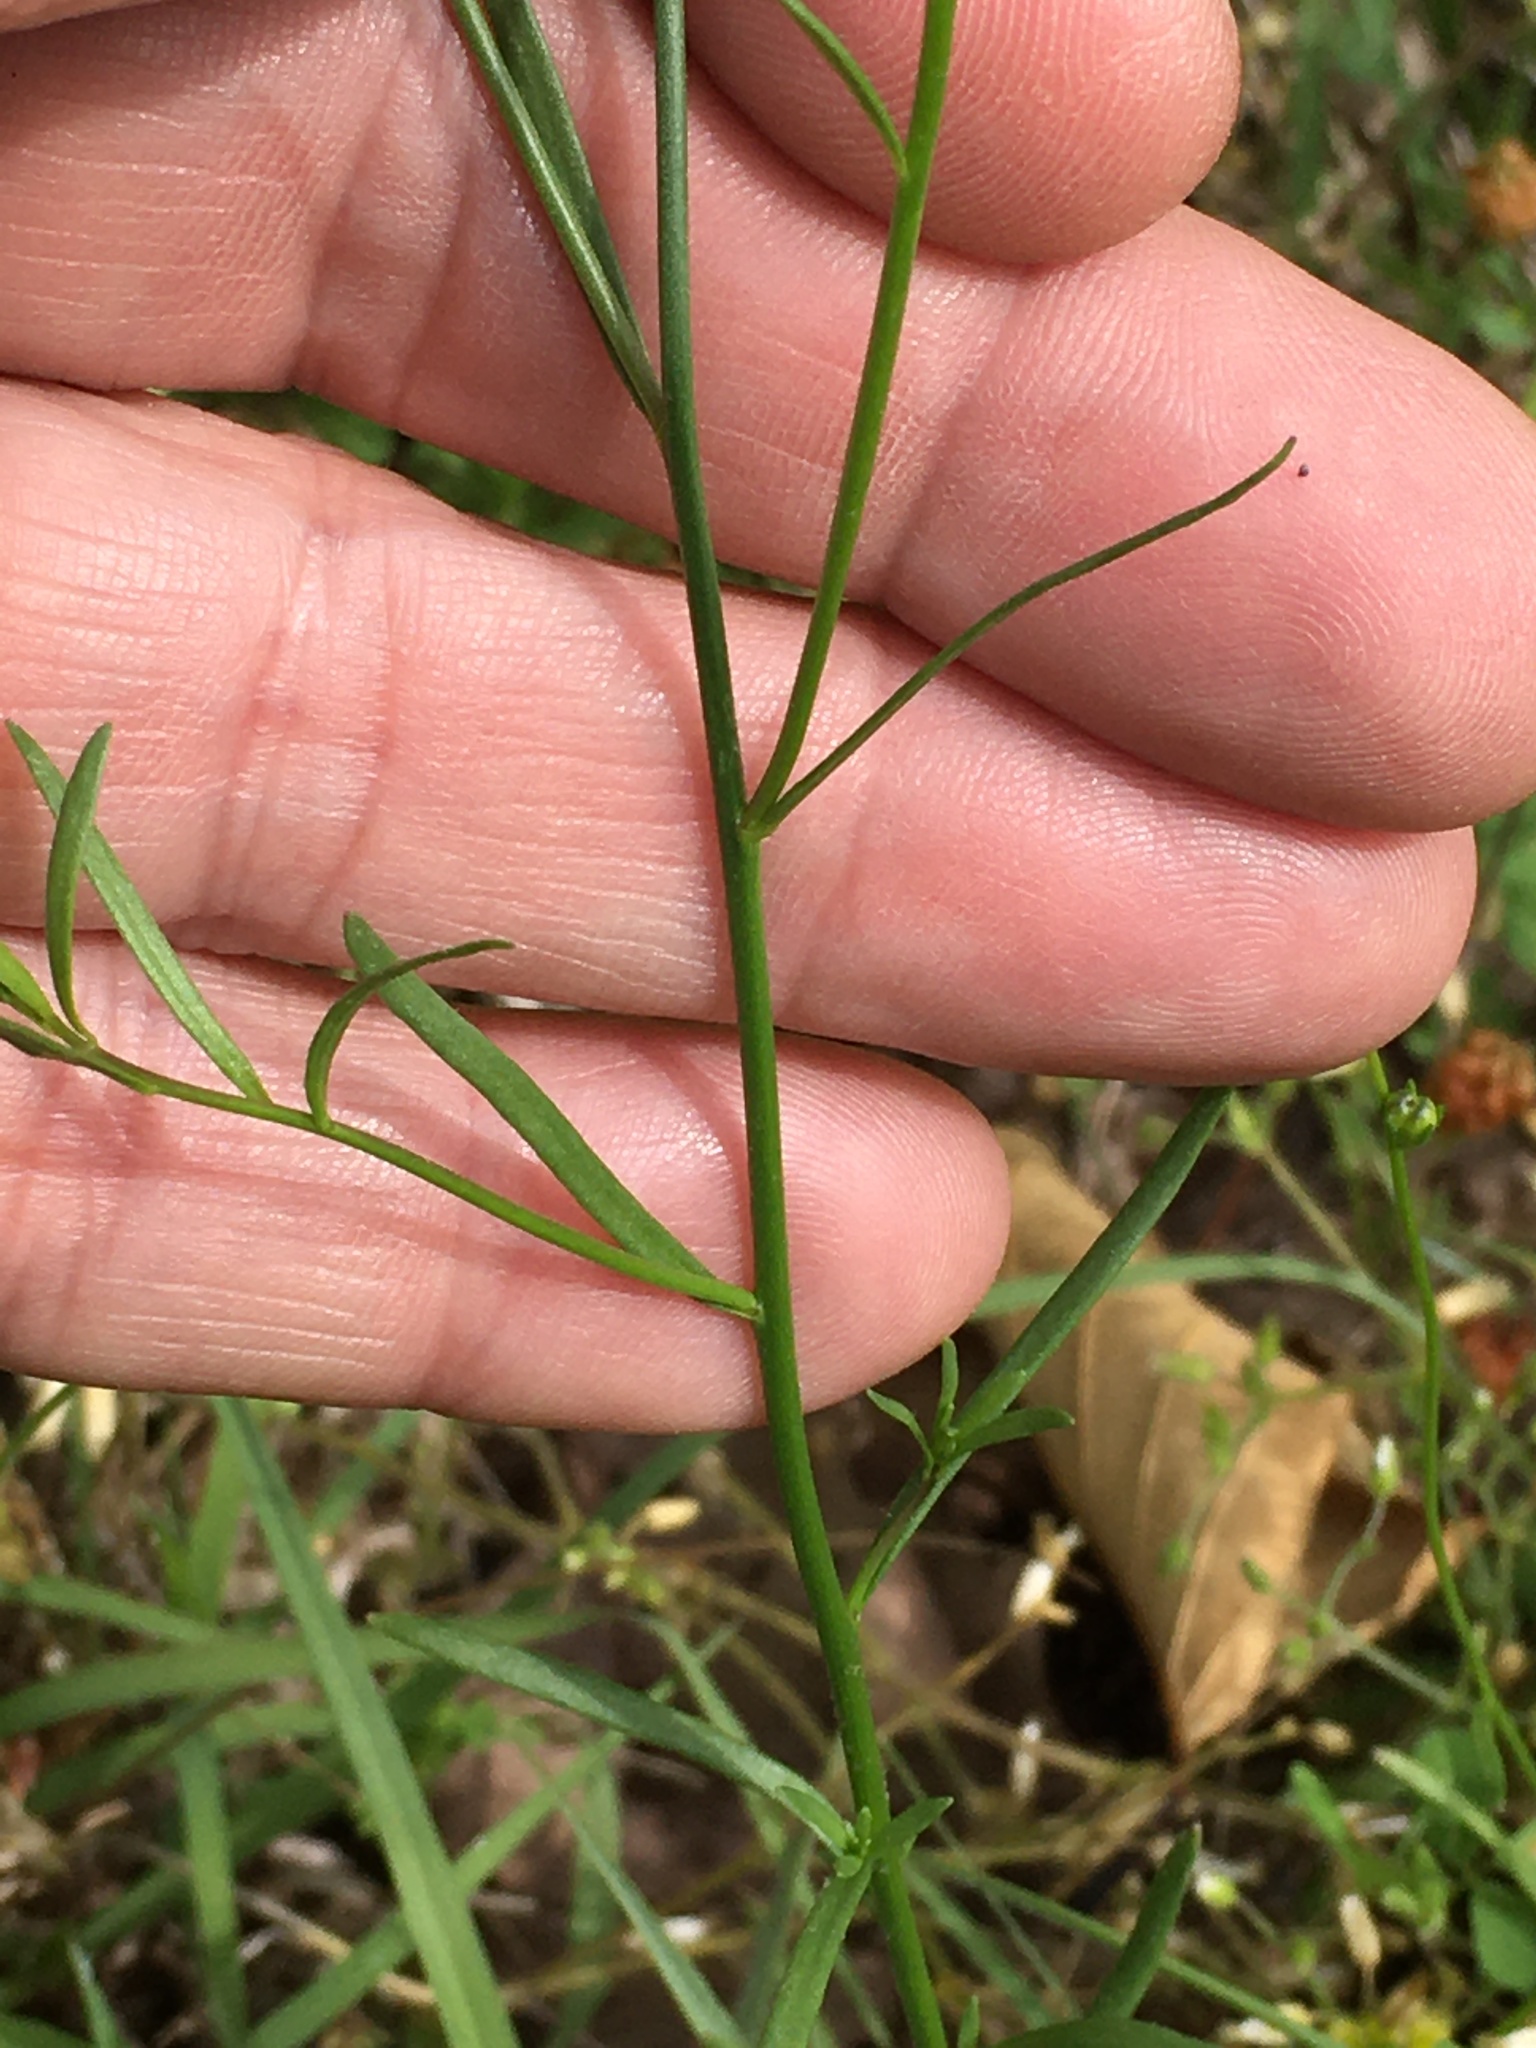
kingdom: Plantae
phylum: Tracheophyta
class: Magnoliopsida
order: Lamiales
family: Plantaginaceae
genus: Nuttallanthus
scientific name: Nuttallanthus canadensis
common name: Blue toadflax
